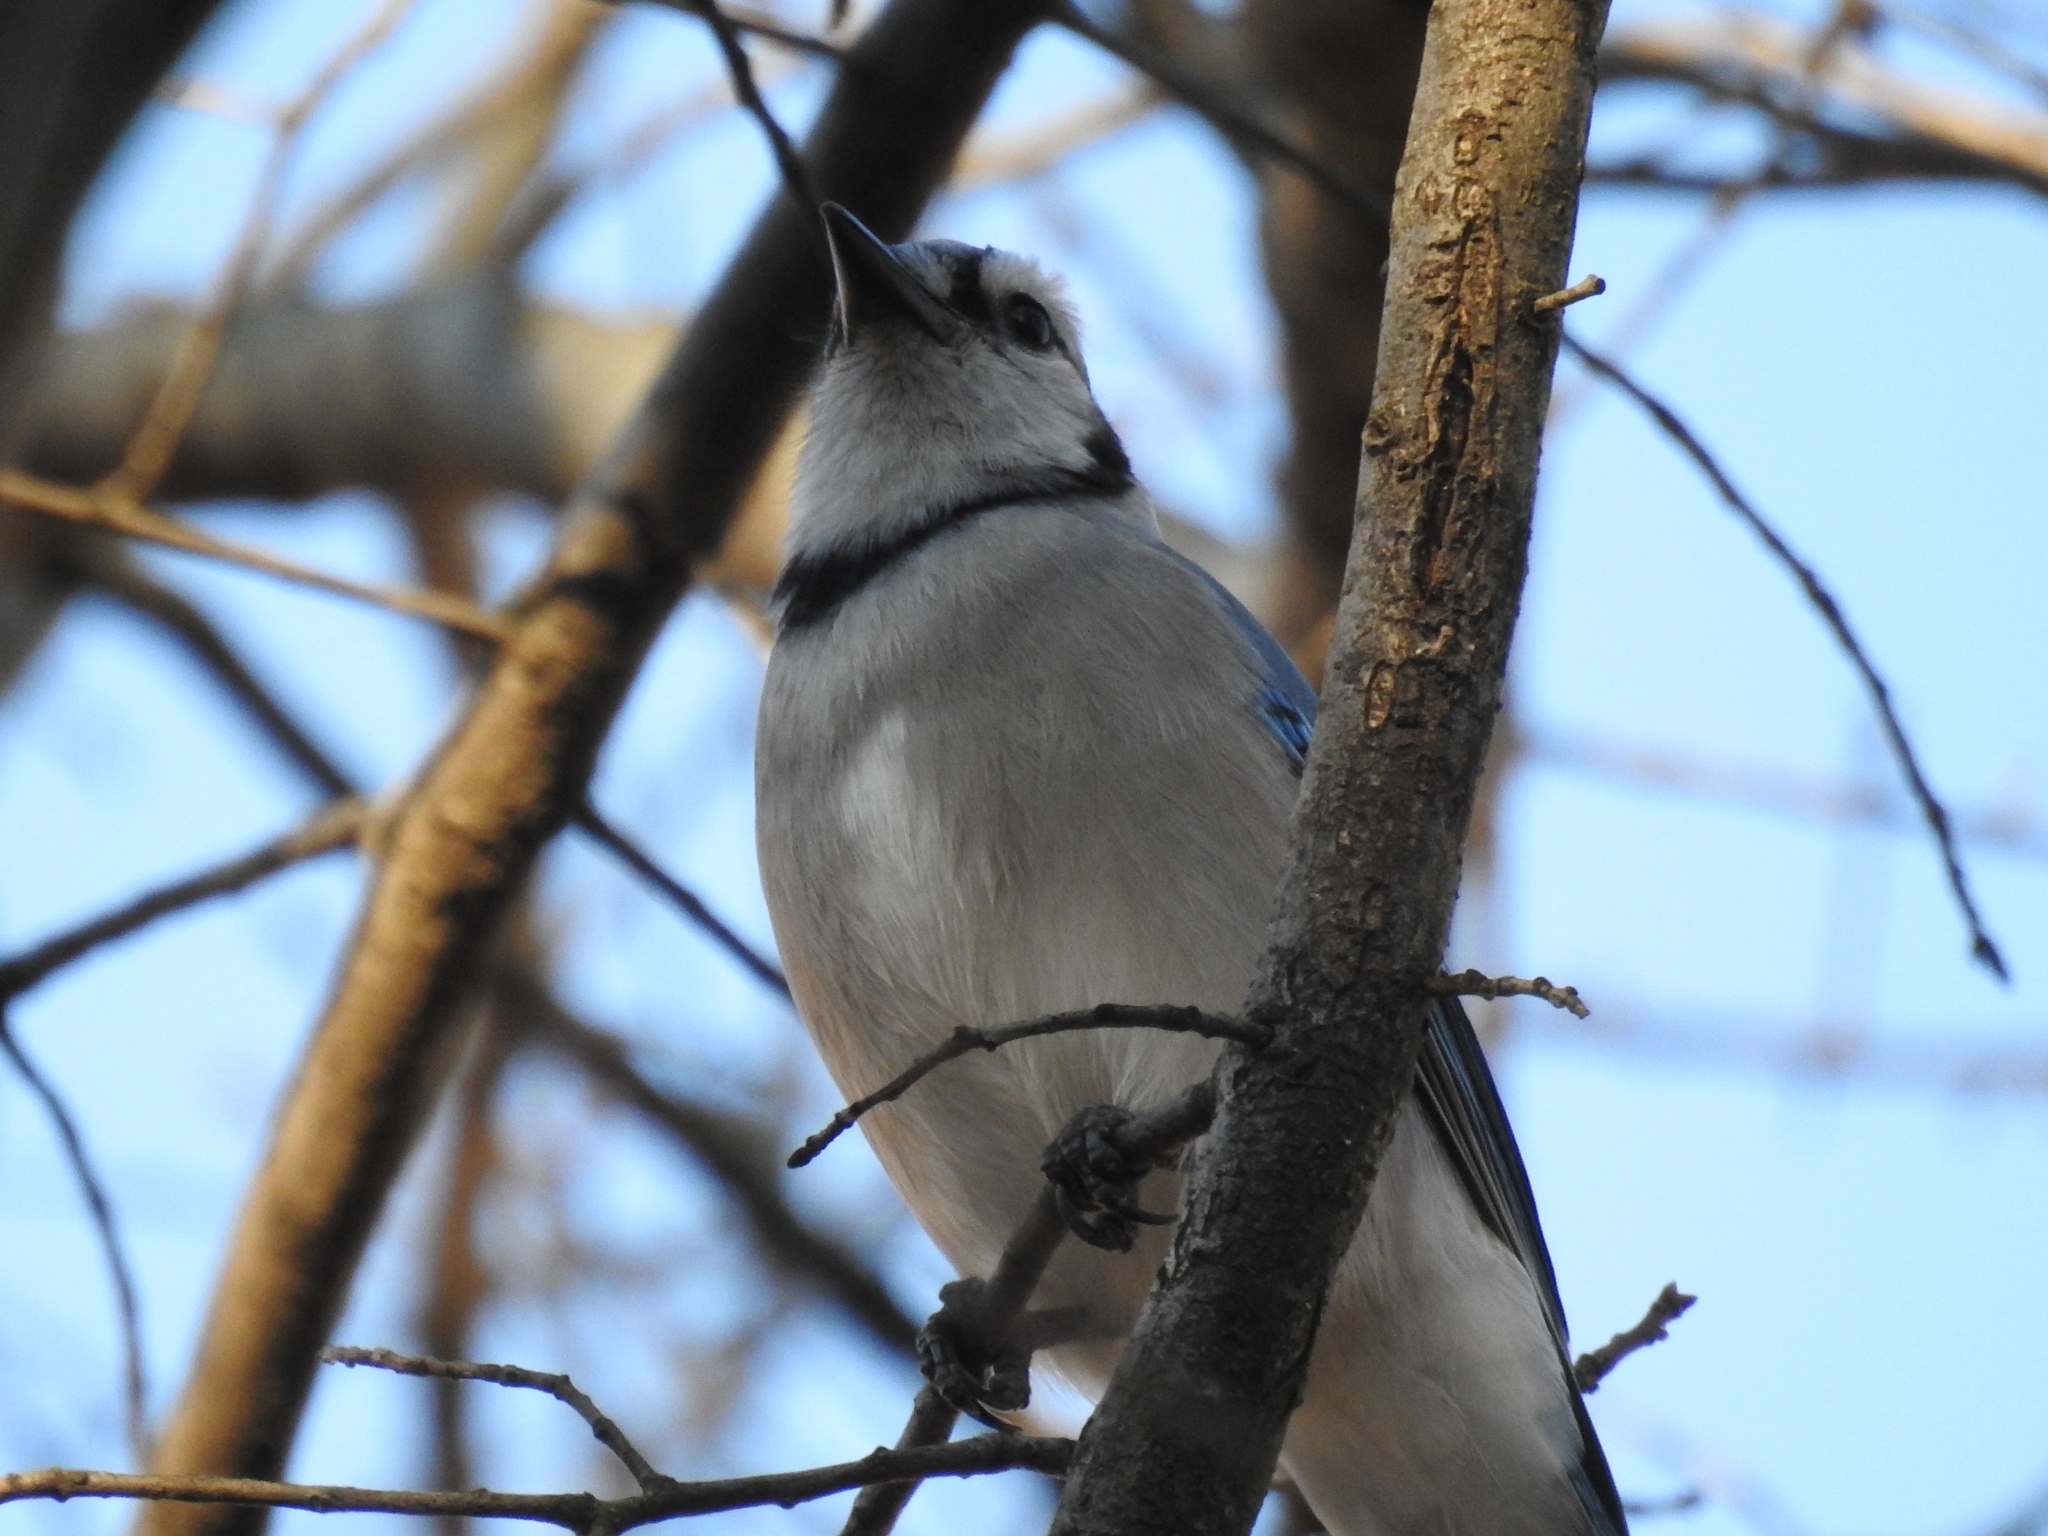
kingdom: Animalia
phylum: Chordata
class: Aves
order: Passeriformes
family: Corvidae
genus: Cyanocitta
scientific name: Cyanocitta cristata
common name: Blue jay
